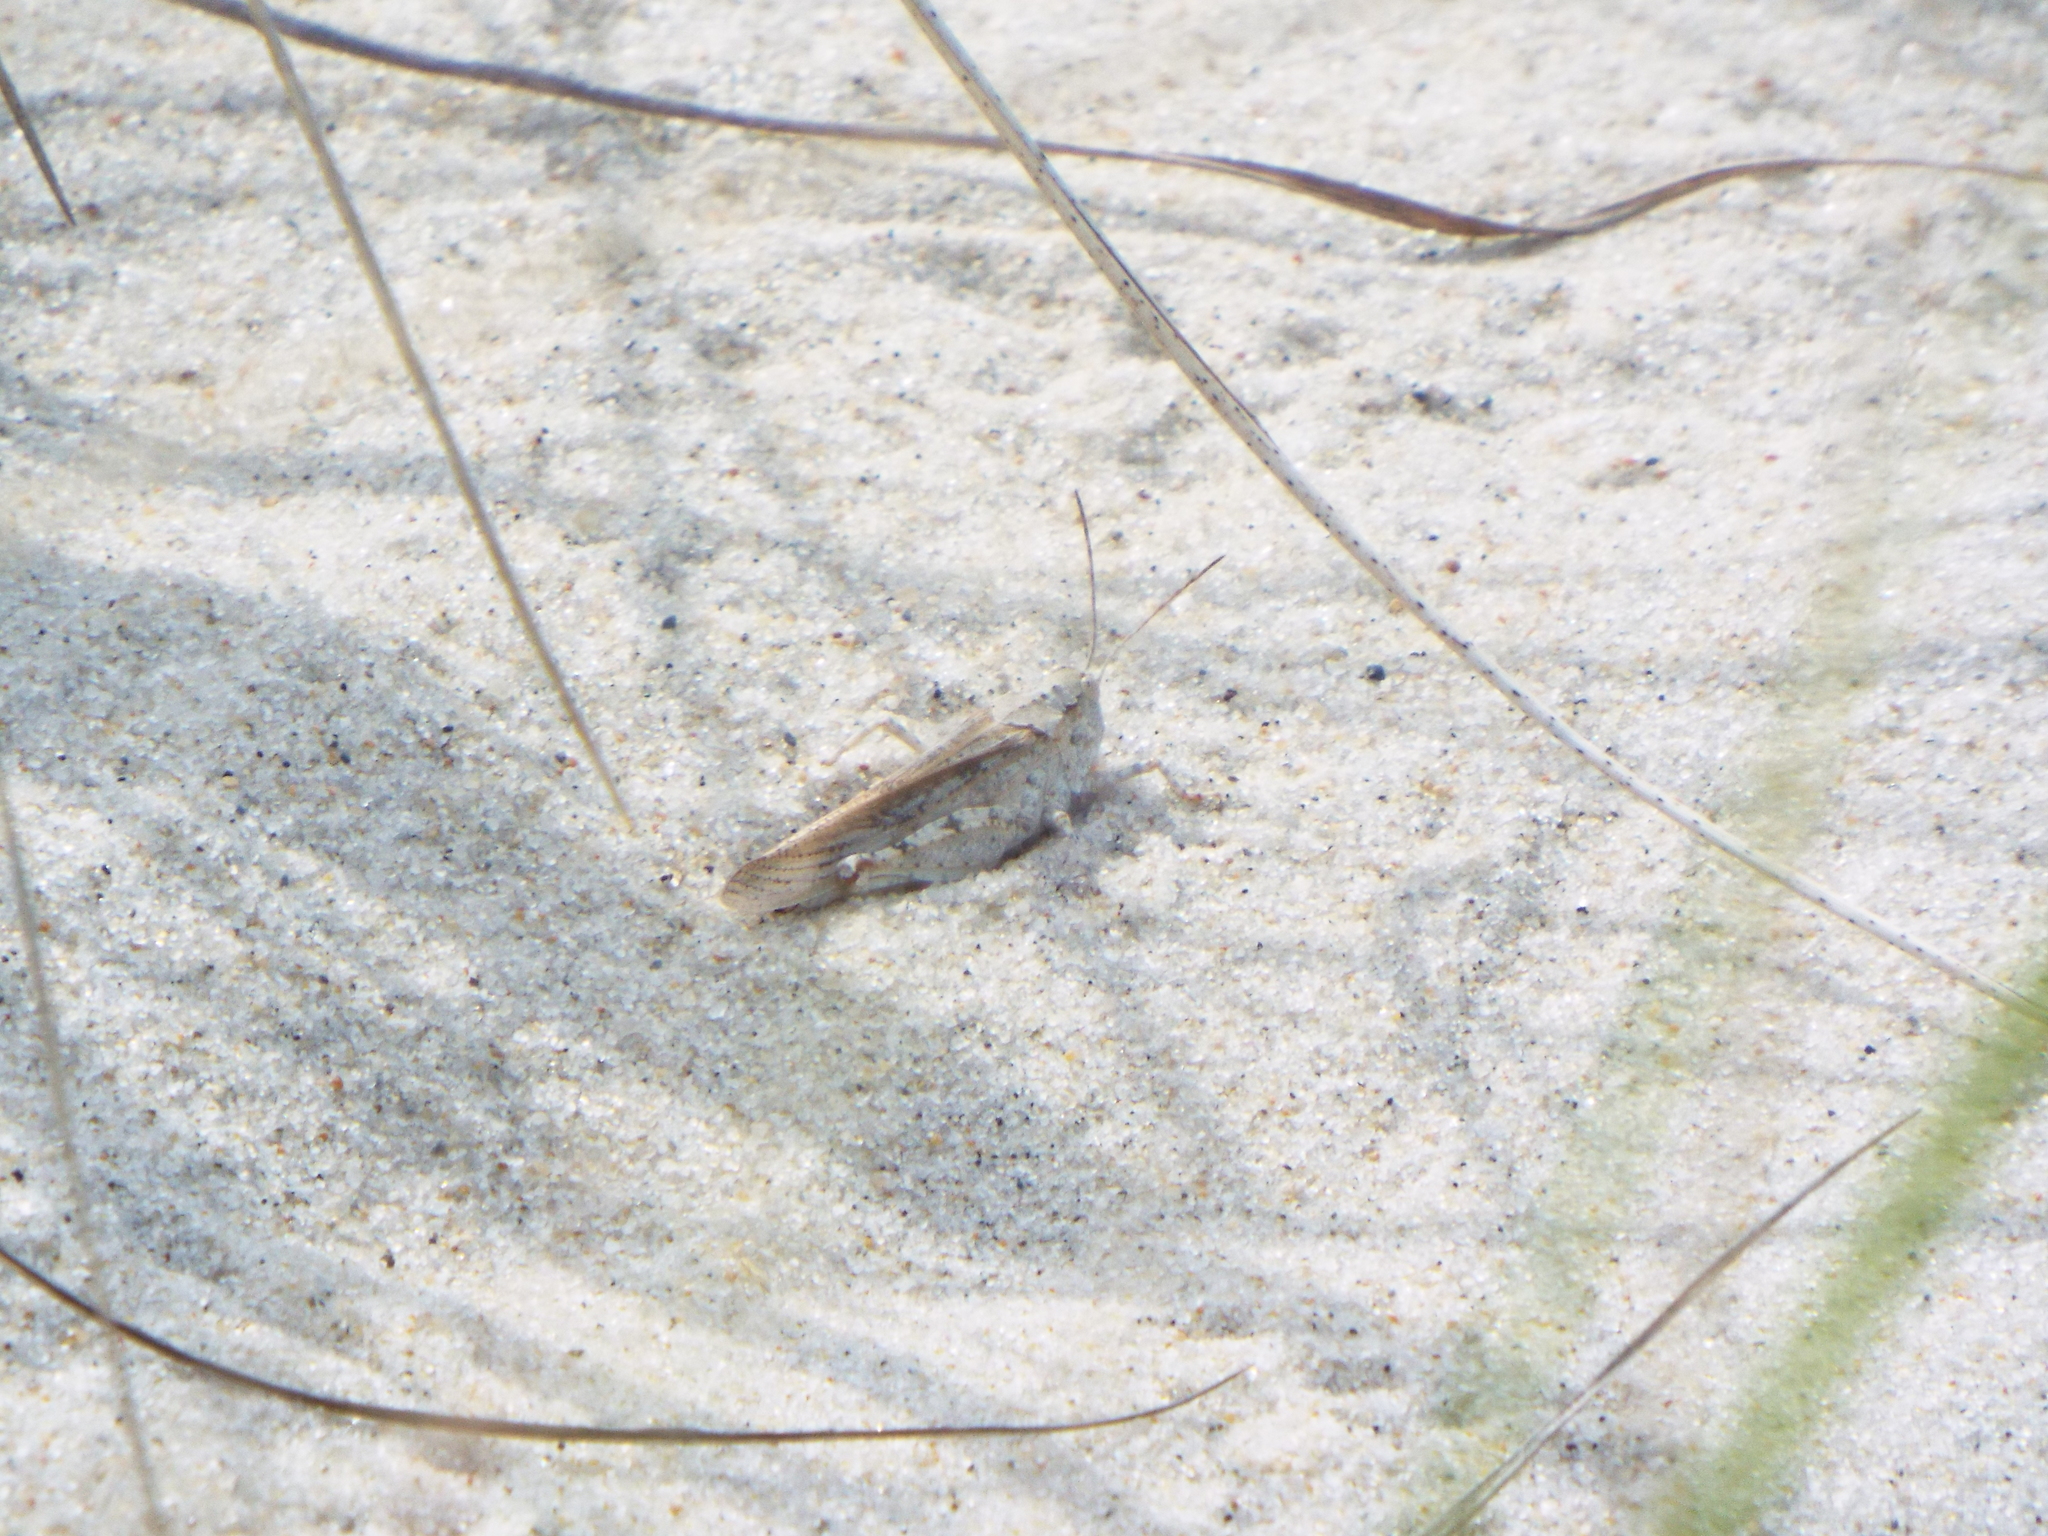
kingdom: Animalia
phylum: Arthropoda
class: Insecta
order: Orthoptera
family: Acrididae
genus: Trimerotropis
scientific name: Trimerotropis maritima
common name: Seaside locust
